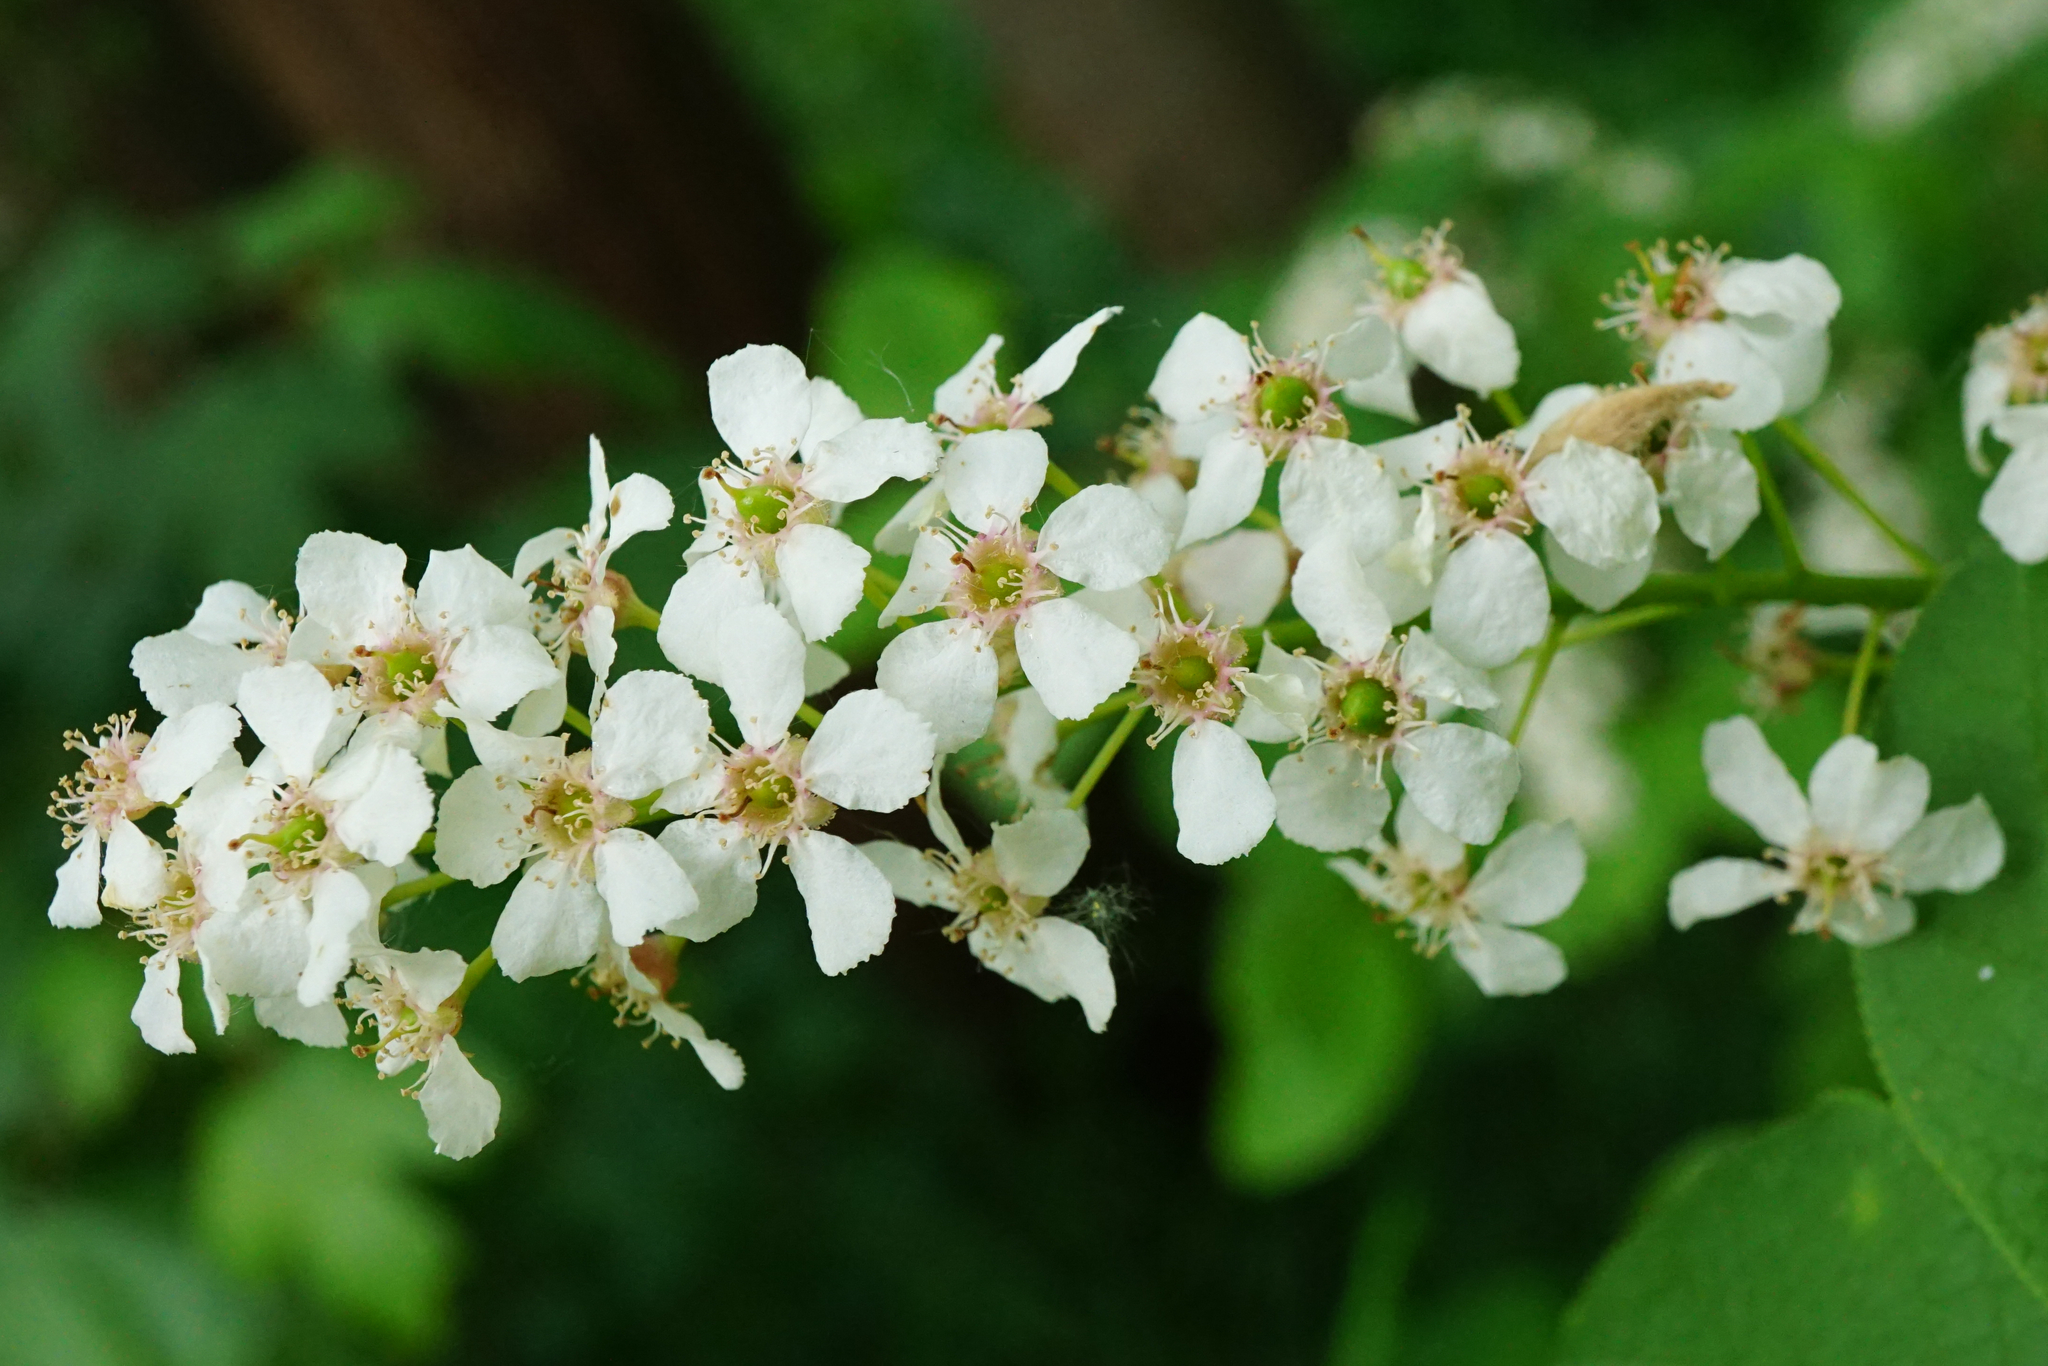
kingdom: Plantae
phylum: Tracheophyta
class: Magnoliopsida
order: Rosales
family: Rosaceae
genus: Prunus
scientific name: Prunus padus
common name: Bird cherry
